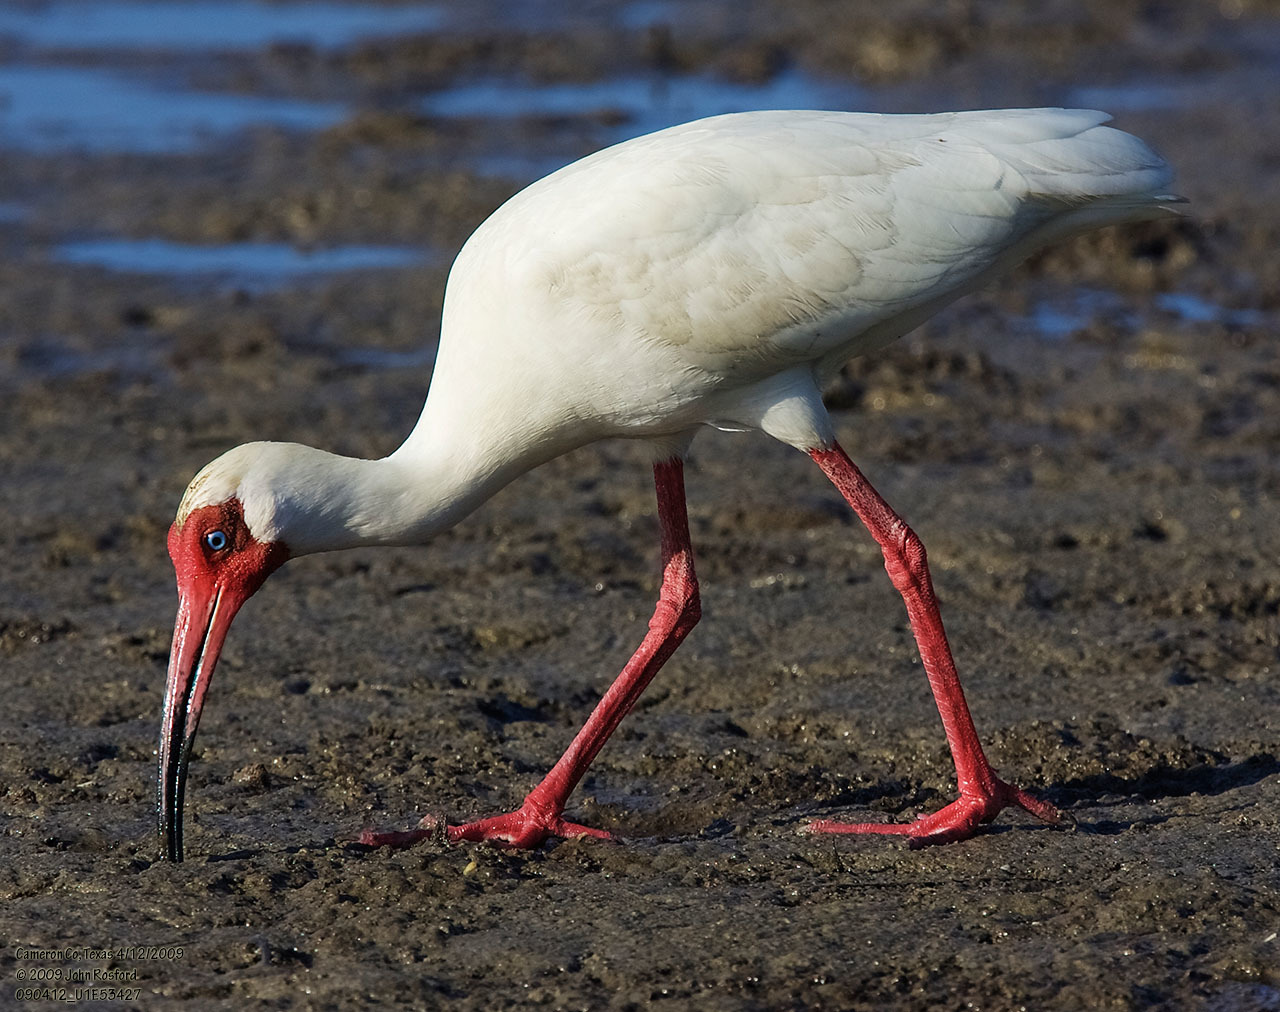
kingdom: Animalia
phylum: Chordata
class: Aves
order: Pelecaniformes
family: Threskiornithidae
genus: Eudocimus
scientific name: Eudocimus albus
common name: White ibis
